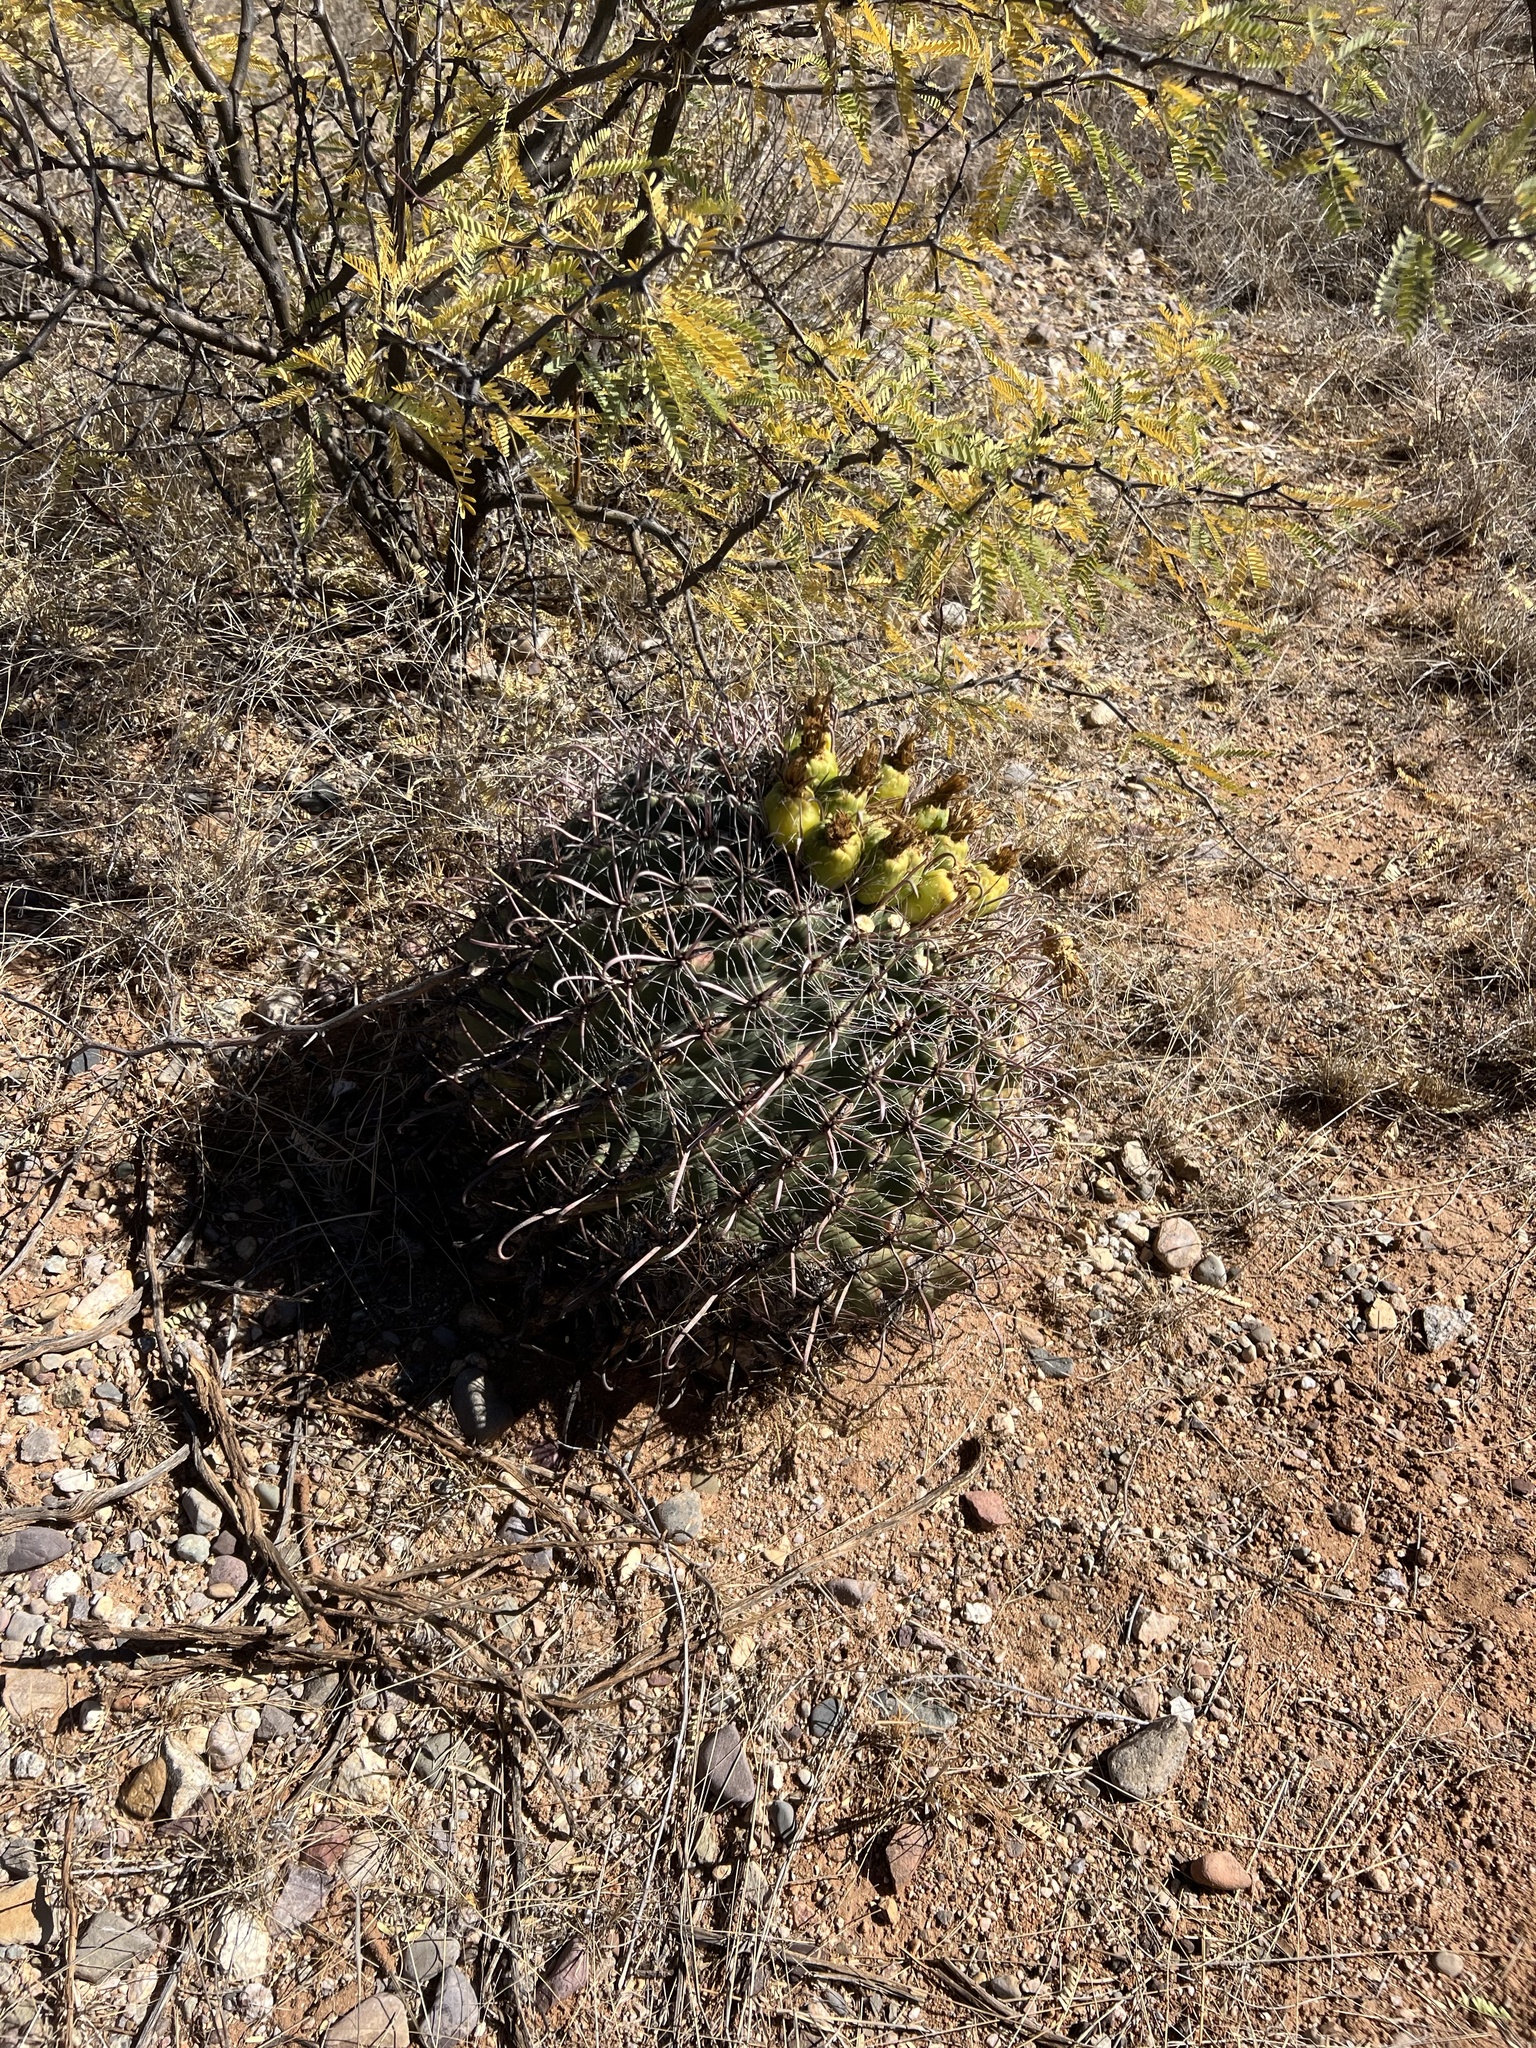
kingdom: Plantae
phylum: Tracheophyta
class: Magnoliopsida
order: Caryophyllales
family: Cactaceae
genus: Ferocactus
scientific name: Ferocactus wislizeni
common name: Candy barrel cactus
